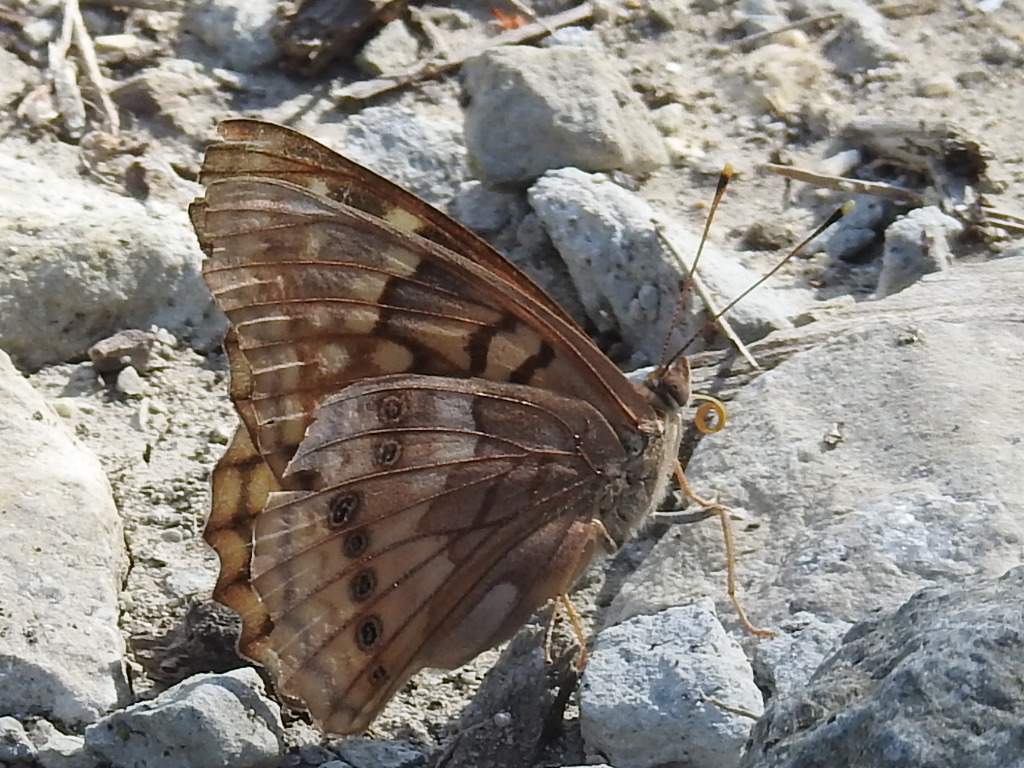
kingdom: Animalia
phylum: Arthropoda
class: Insecta
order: Lepidoptera
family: Nymphalidae
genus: Asterocampa
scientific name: Asterocampa clyton
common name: Tawny emperor
